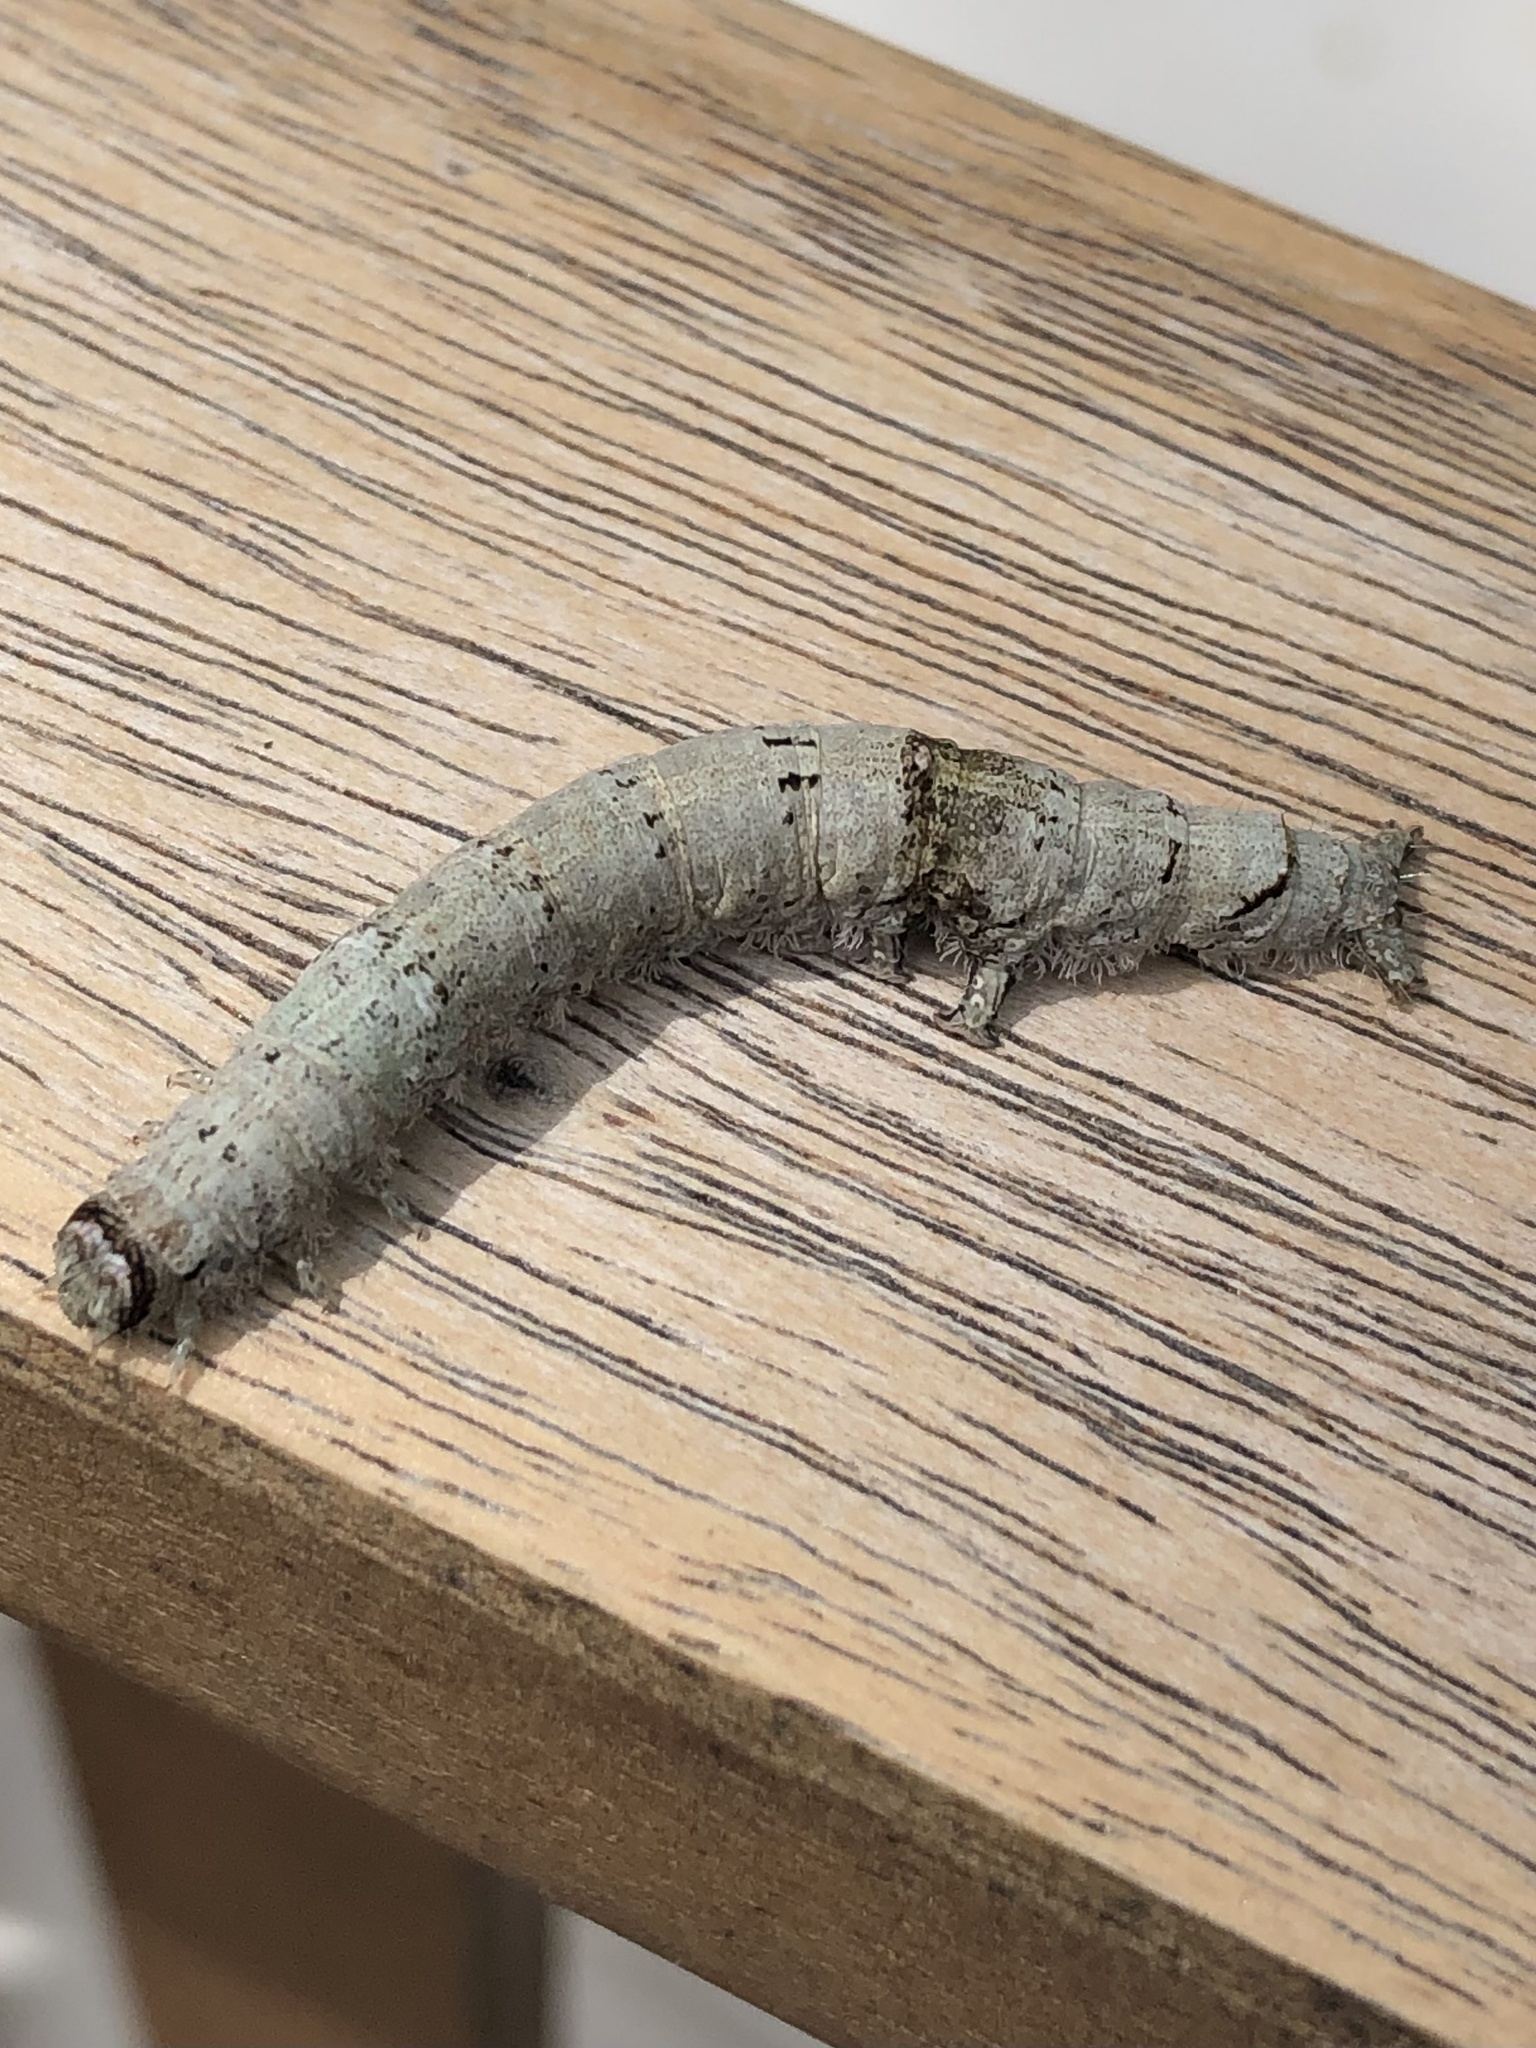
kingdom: Animalia
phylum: Arthropoda
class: Insecta
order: Lepidoptera
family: Erebidae
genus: Catocala
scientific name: Catocala ilia
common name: Ilia underwing
